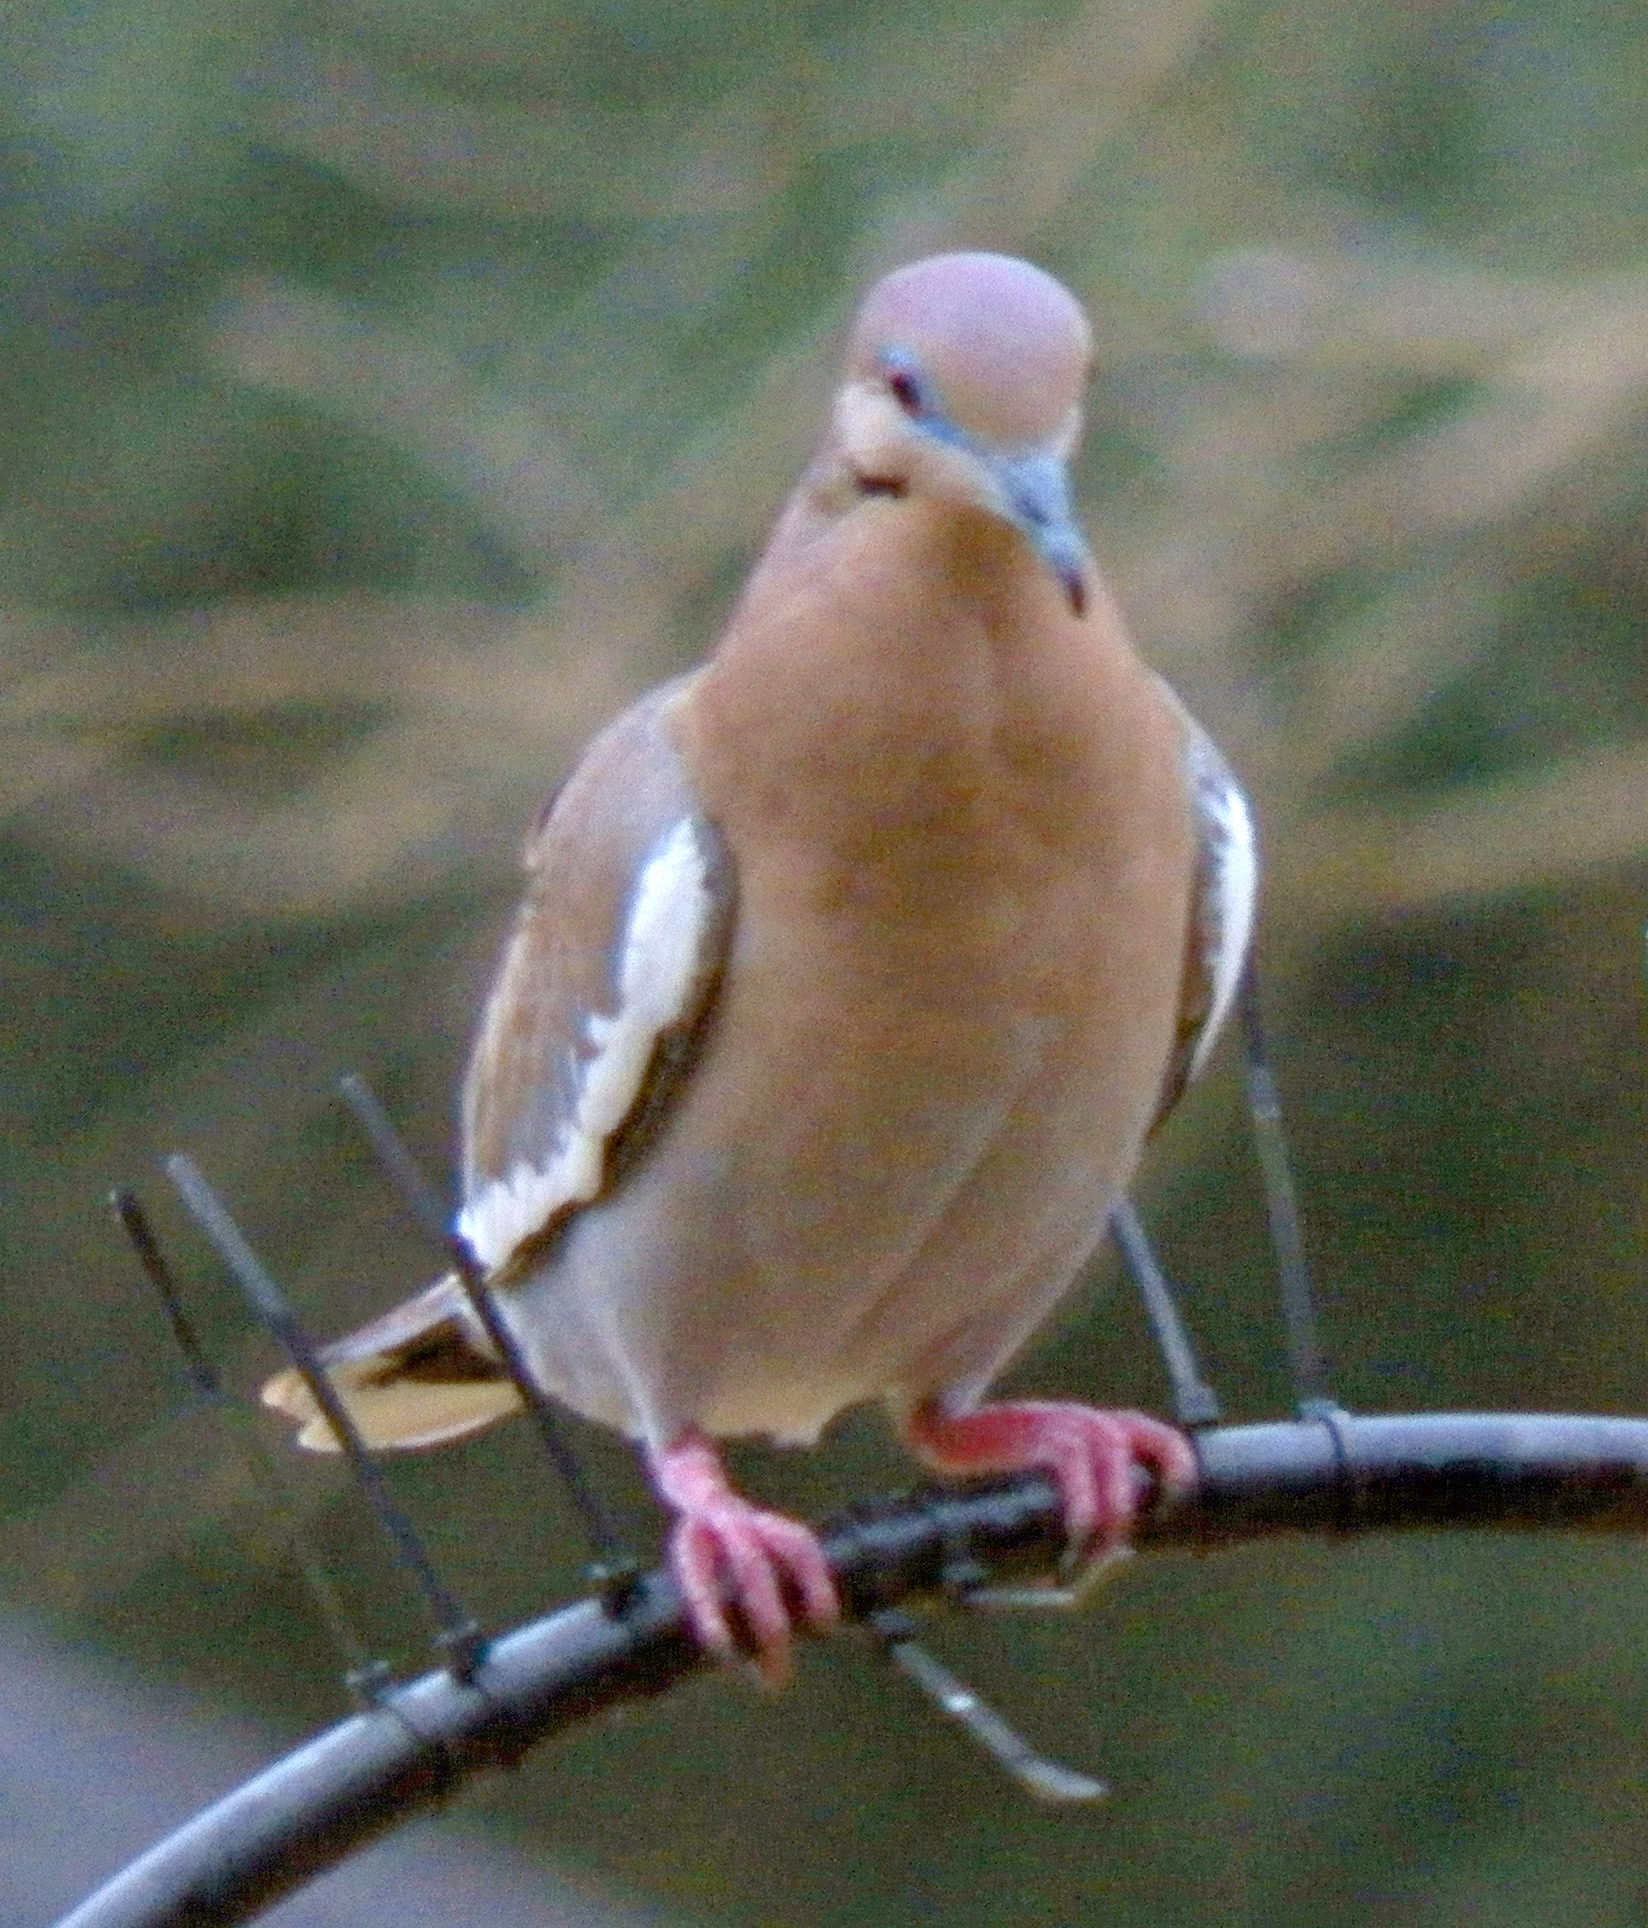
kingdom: Animalia
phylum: Chordata
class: Aves
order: Columbiformes
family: Columbidae
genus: Zenaida
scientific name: Zenaida asiatica
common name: White-winged dove
